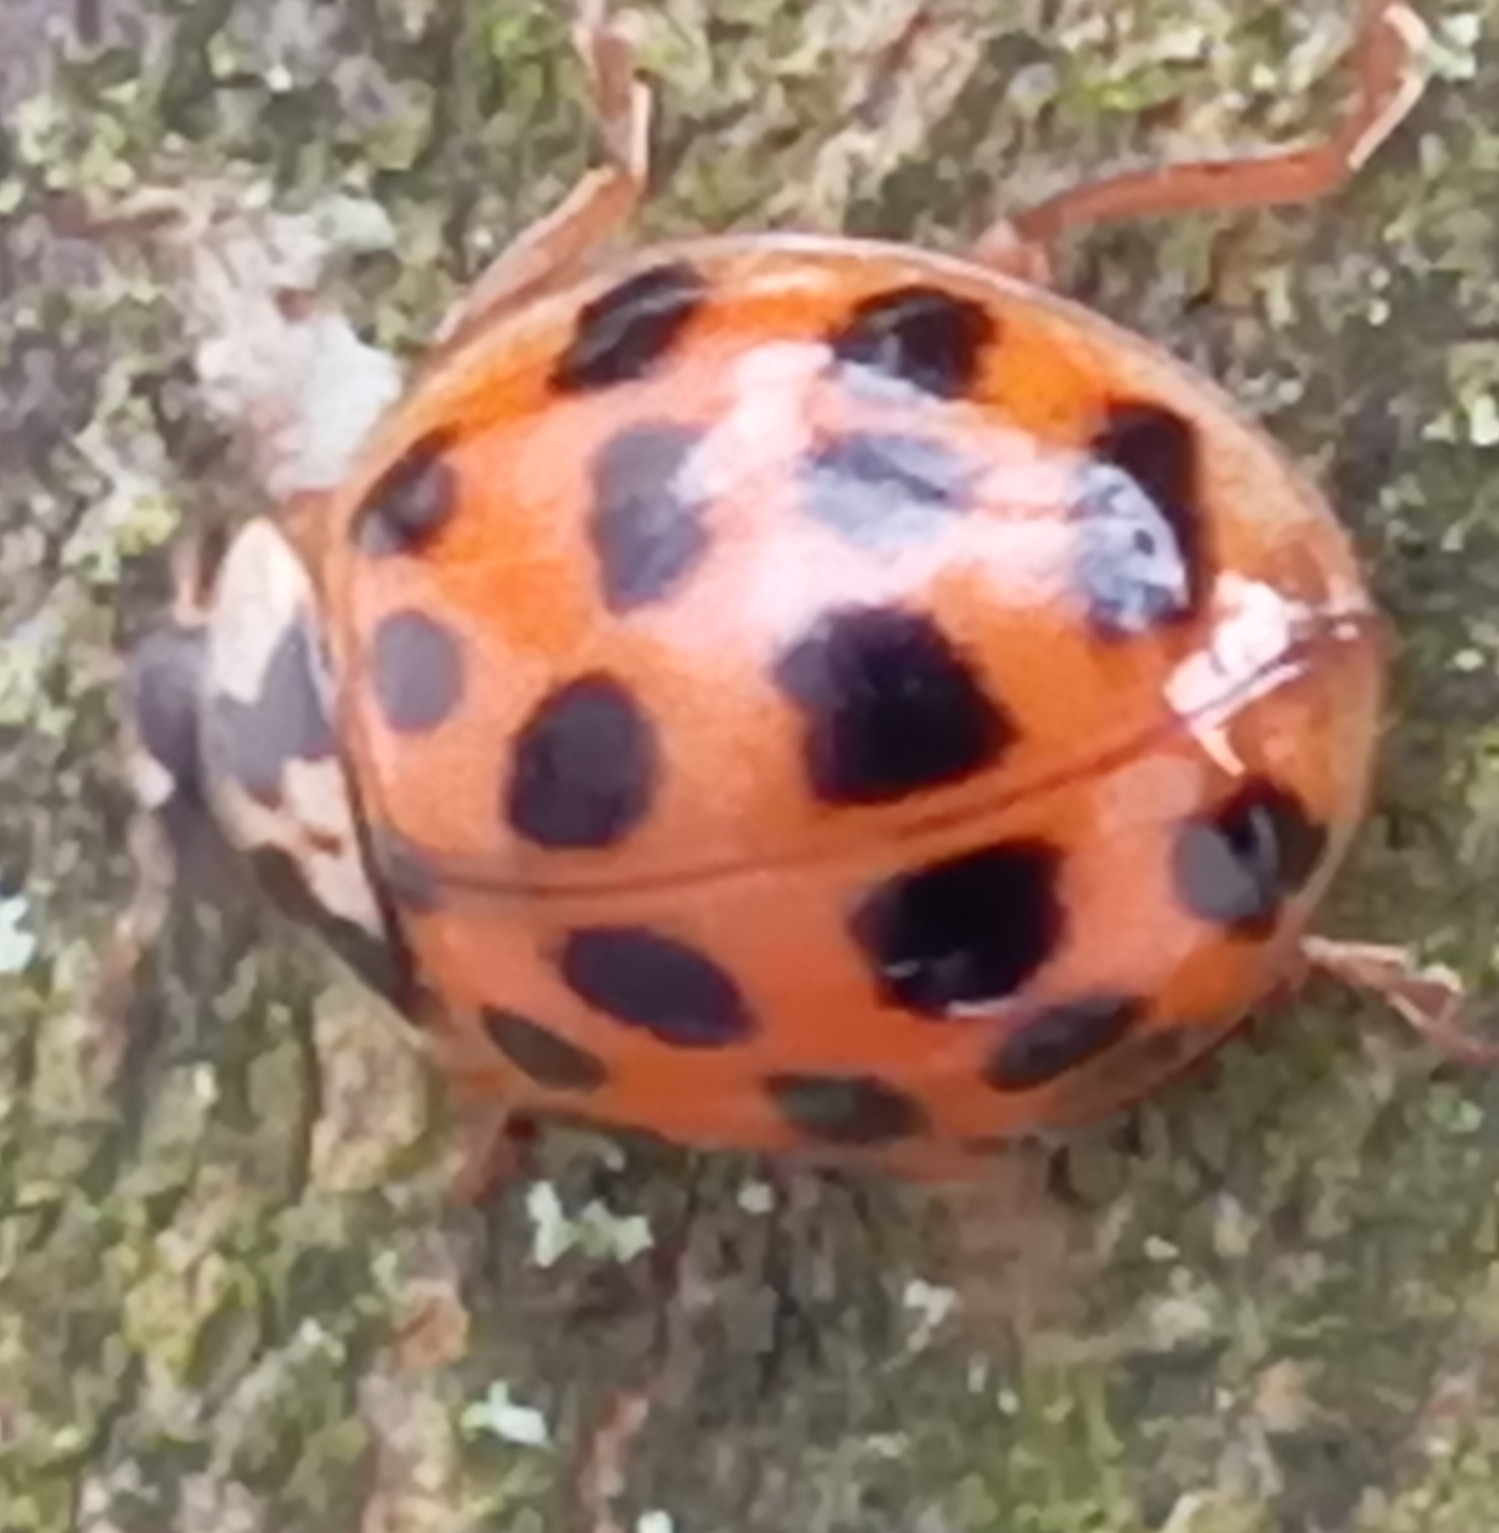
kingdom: Animalia
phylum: Arthropoda
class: Insecta
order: Coleoptera
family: Coccinellidae
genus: Harmonia
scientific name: Harmonia axyridis
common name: Harlequin ladybird
